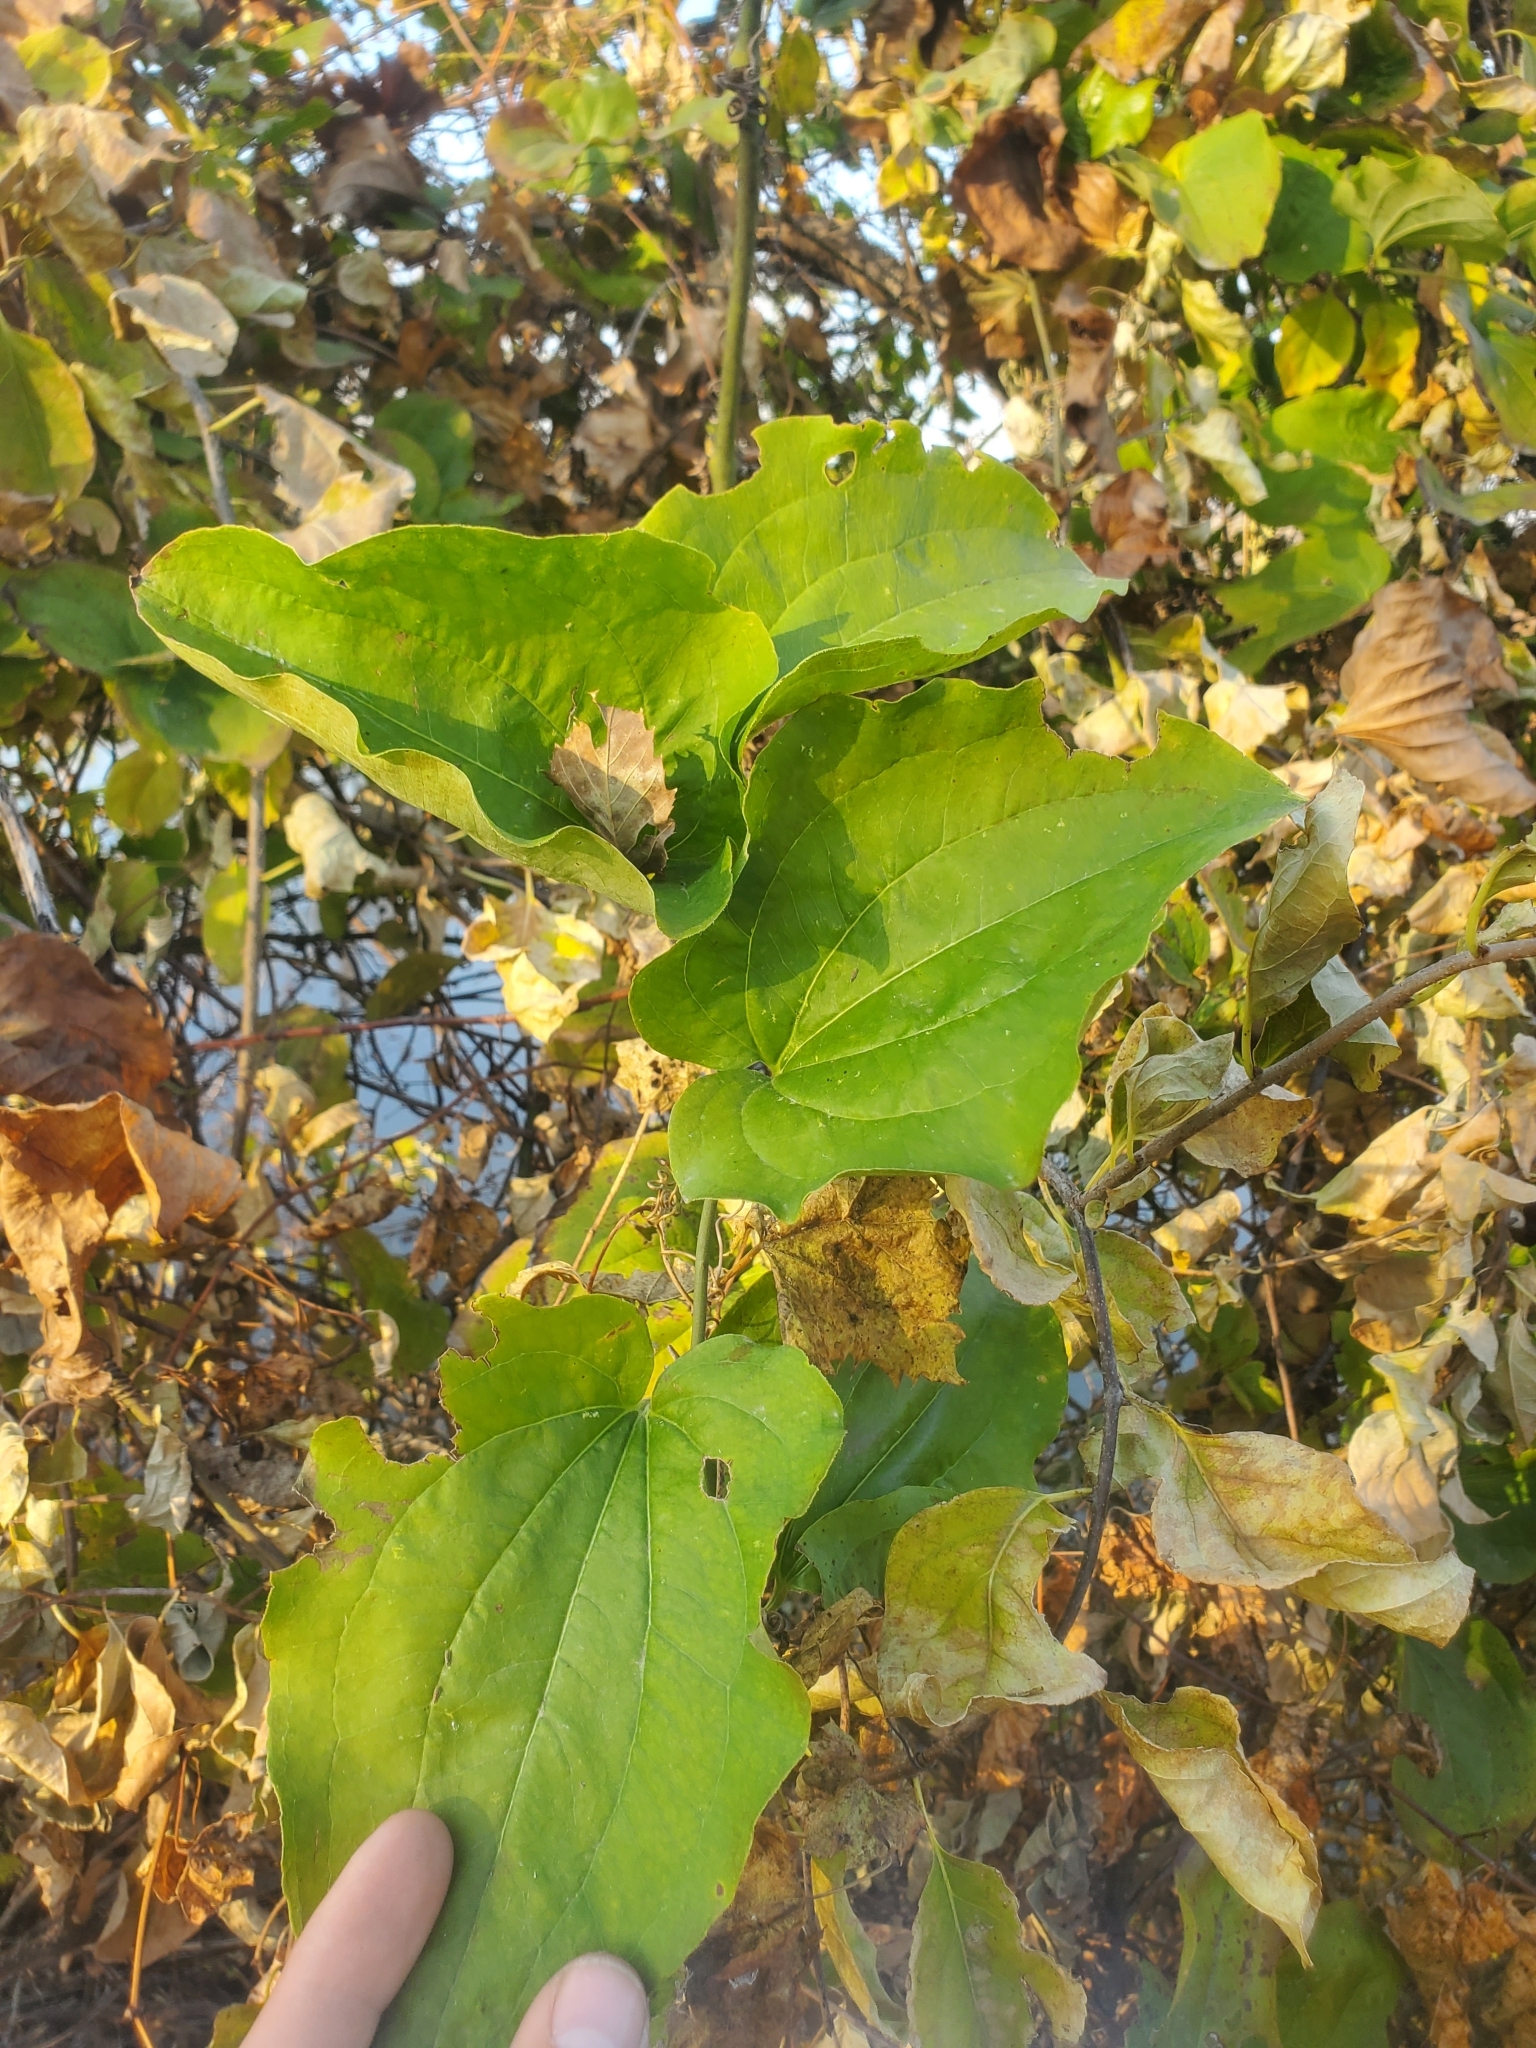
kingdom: Plantae
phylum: Tracheophyta
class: Liliopsida
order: Liliales
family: Smilacaceae
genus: Smilax
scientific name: Smilax tamnoides
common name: Hellfetter
